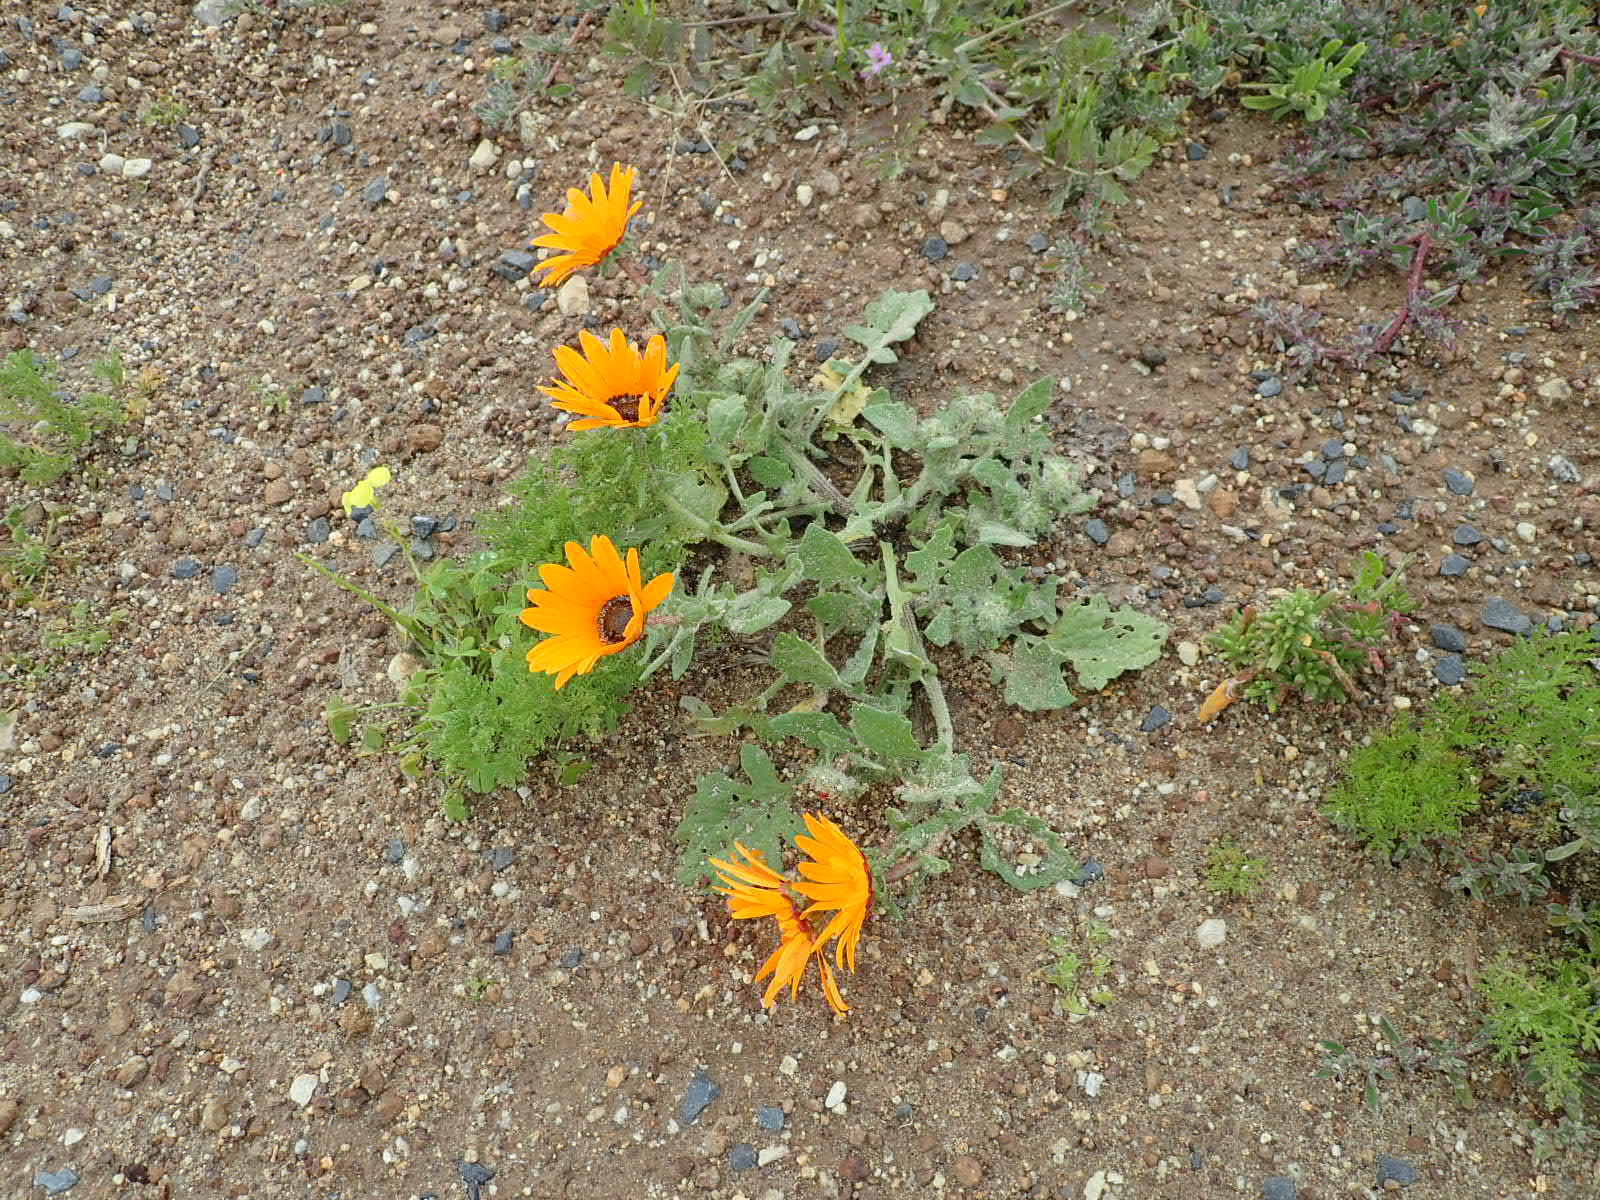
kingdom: Plantae
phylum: Tracheophyta
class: Magnoliopsida
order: Asterales
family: Asteraceae
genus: Arctotis
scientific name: Arctotis hirsuta
